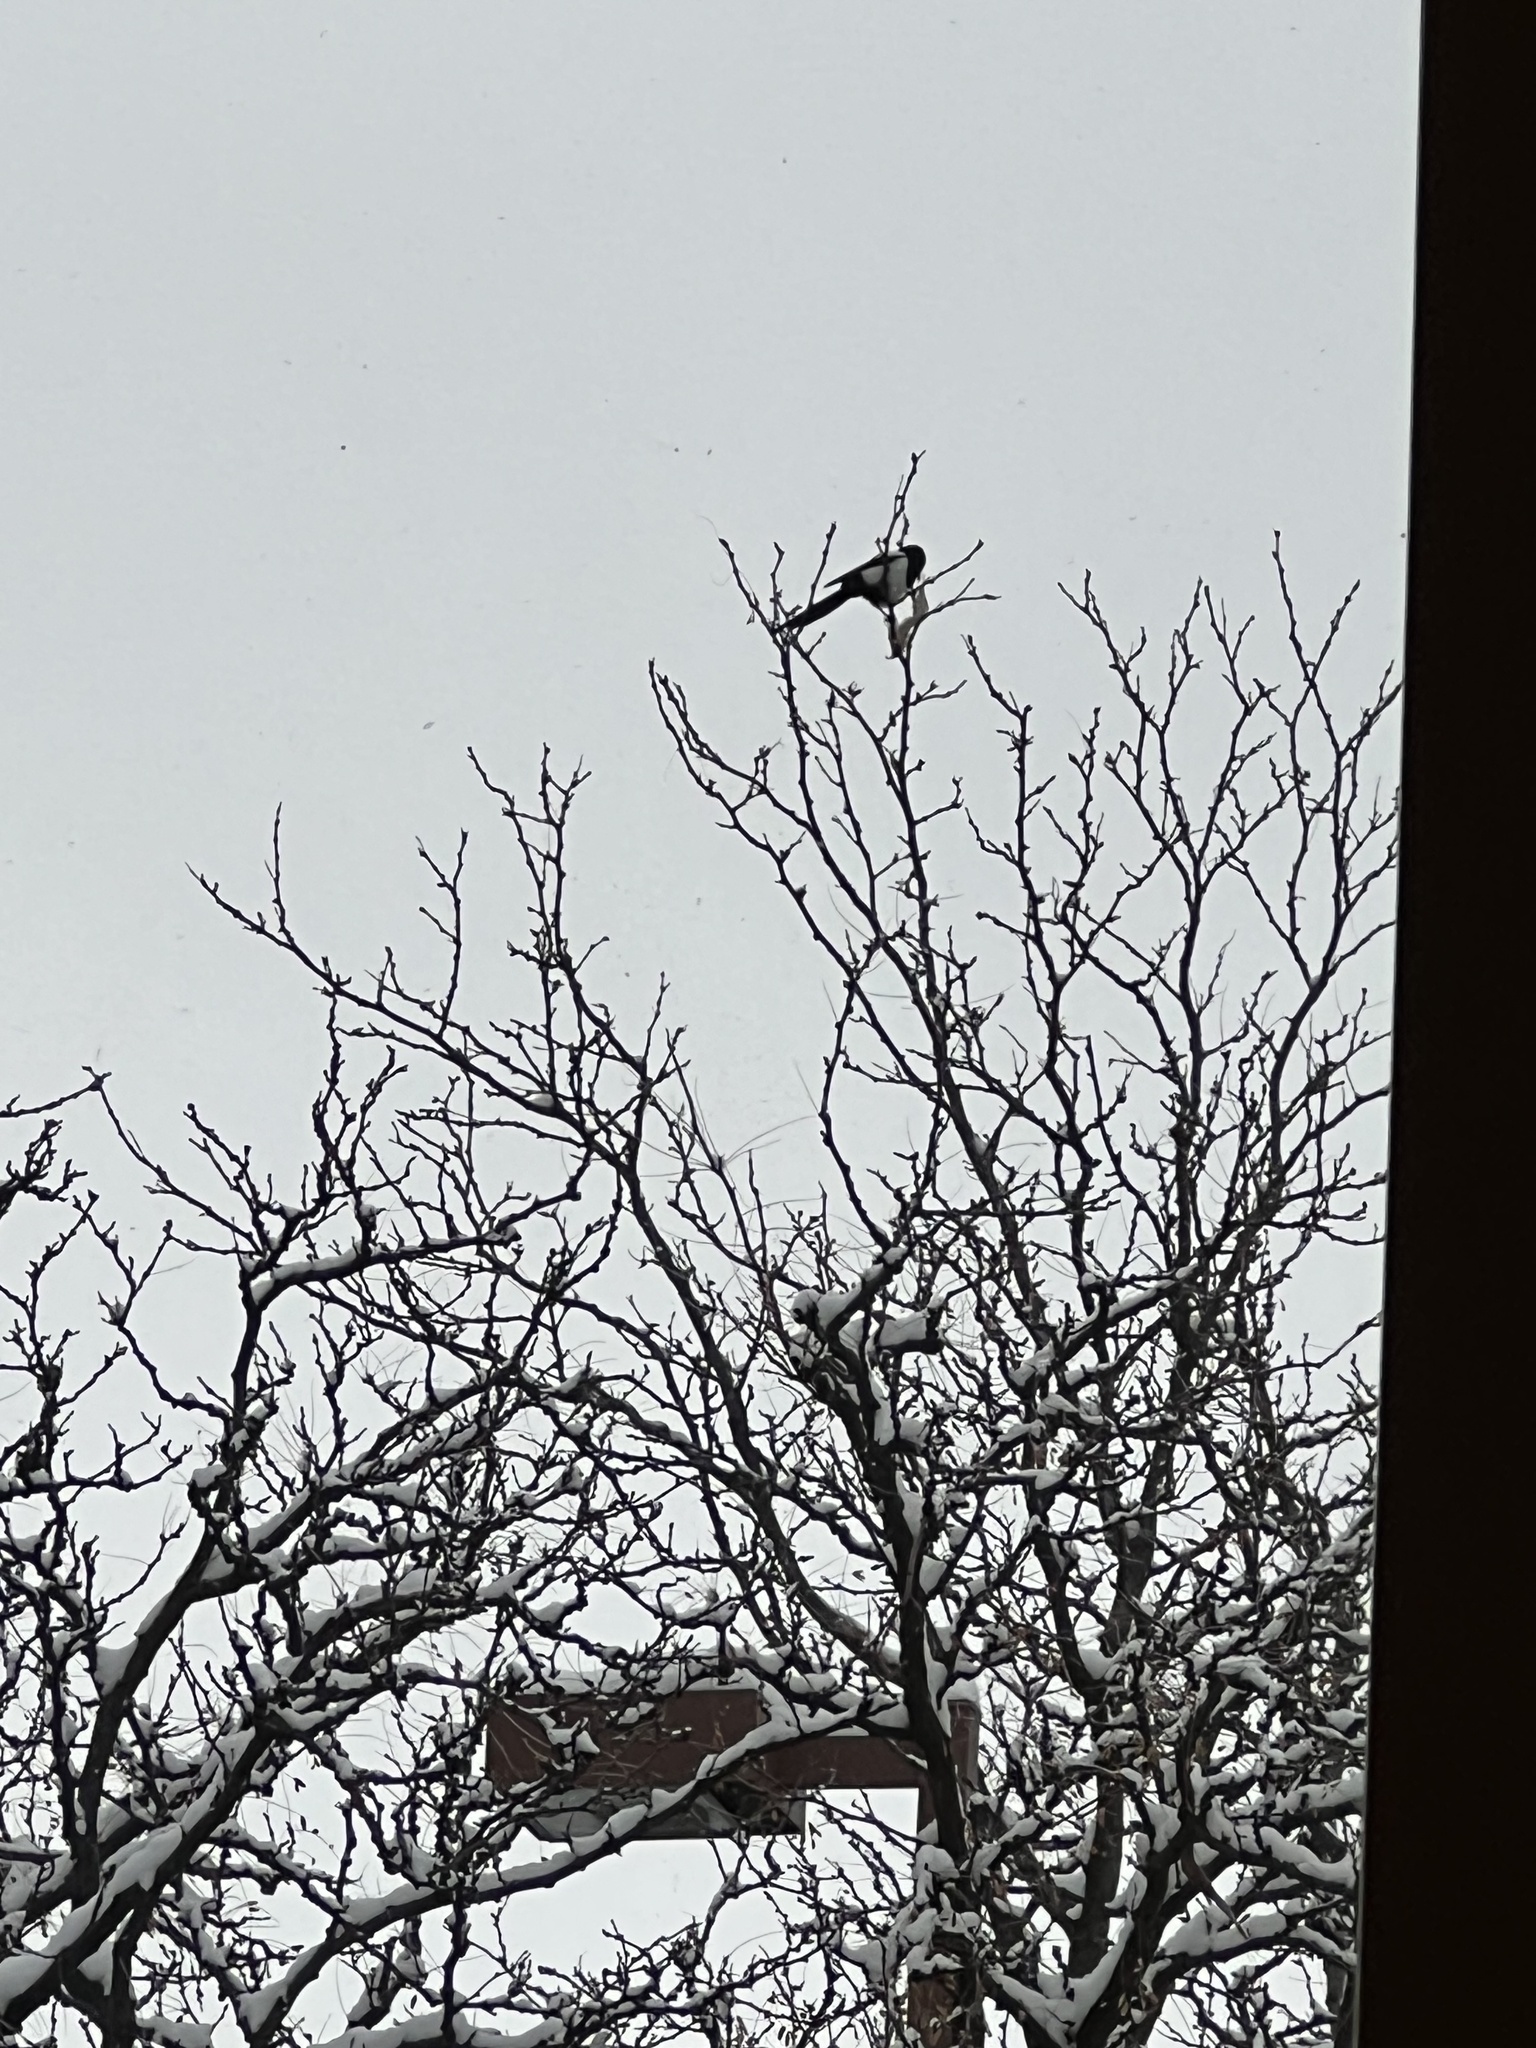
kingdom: Animalia
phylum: Chordata
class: Aves
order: Passeriformes
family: Corvidae
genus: Pica
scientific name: Pica hudsonia
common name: Black-billed magpie
